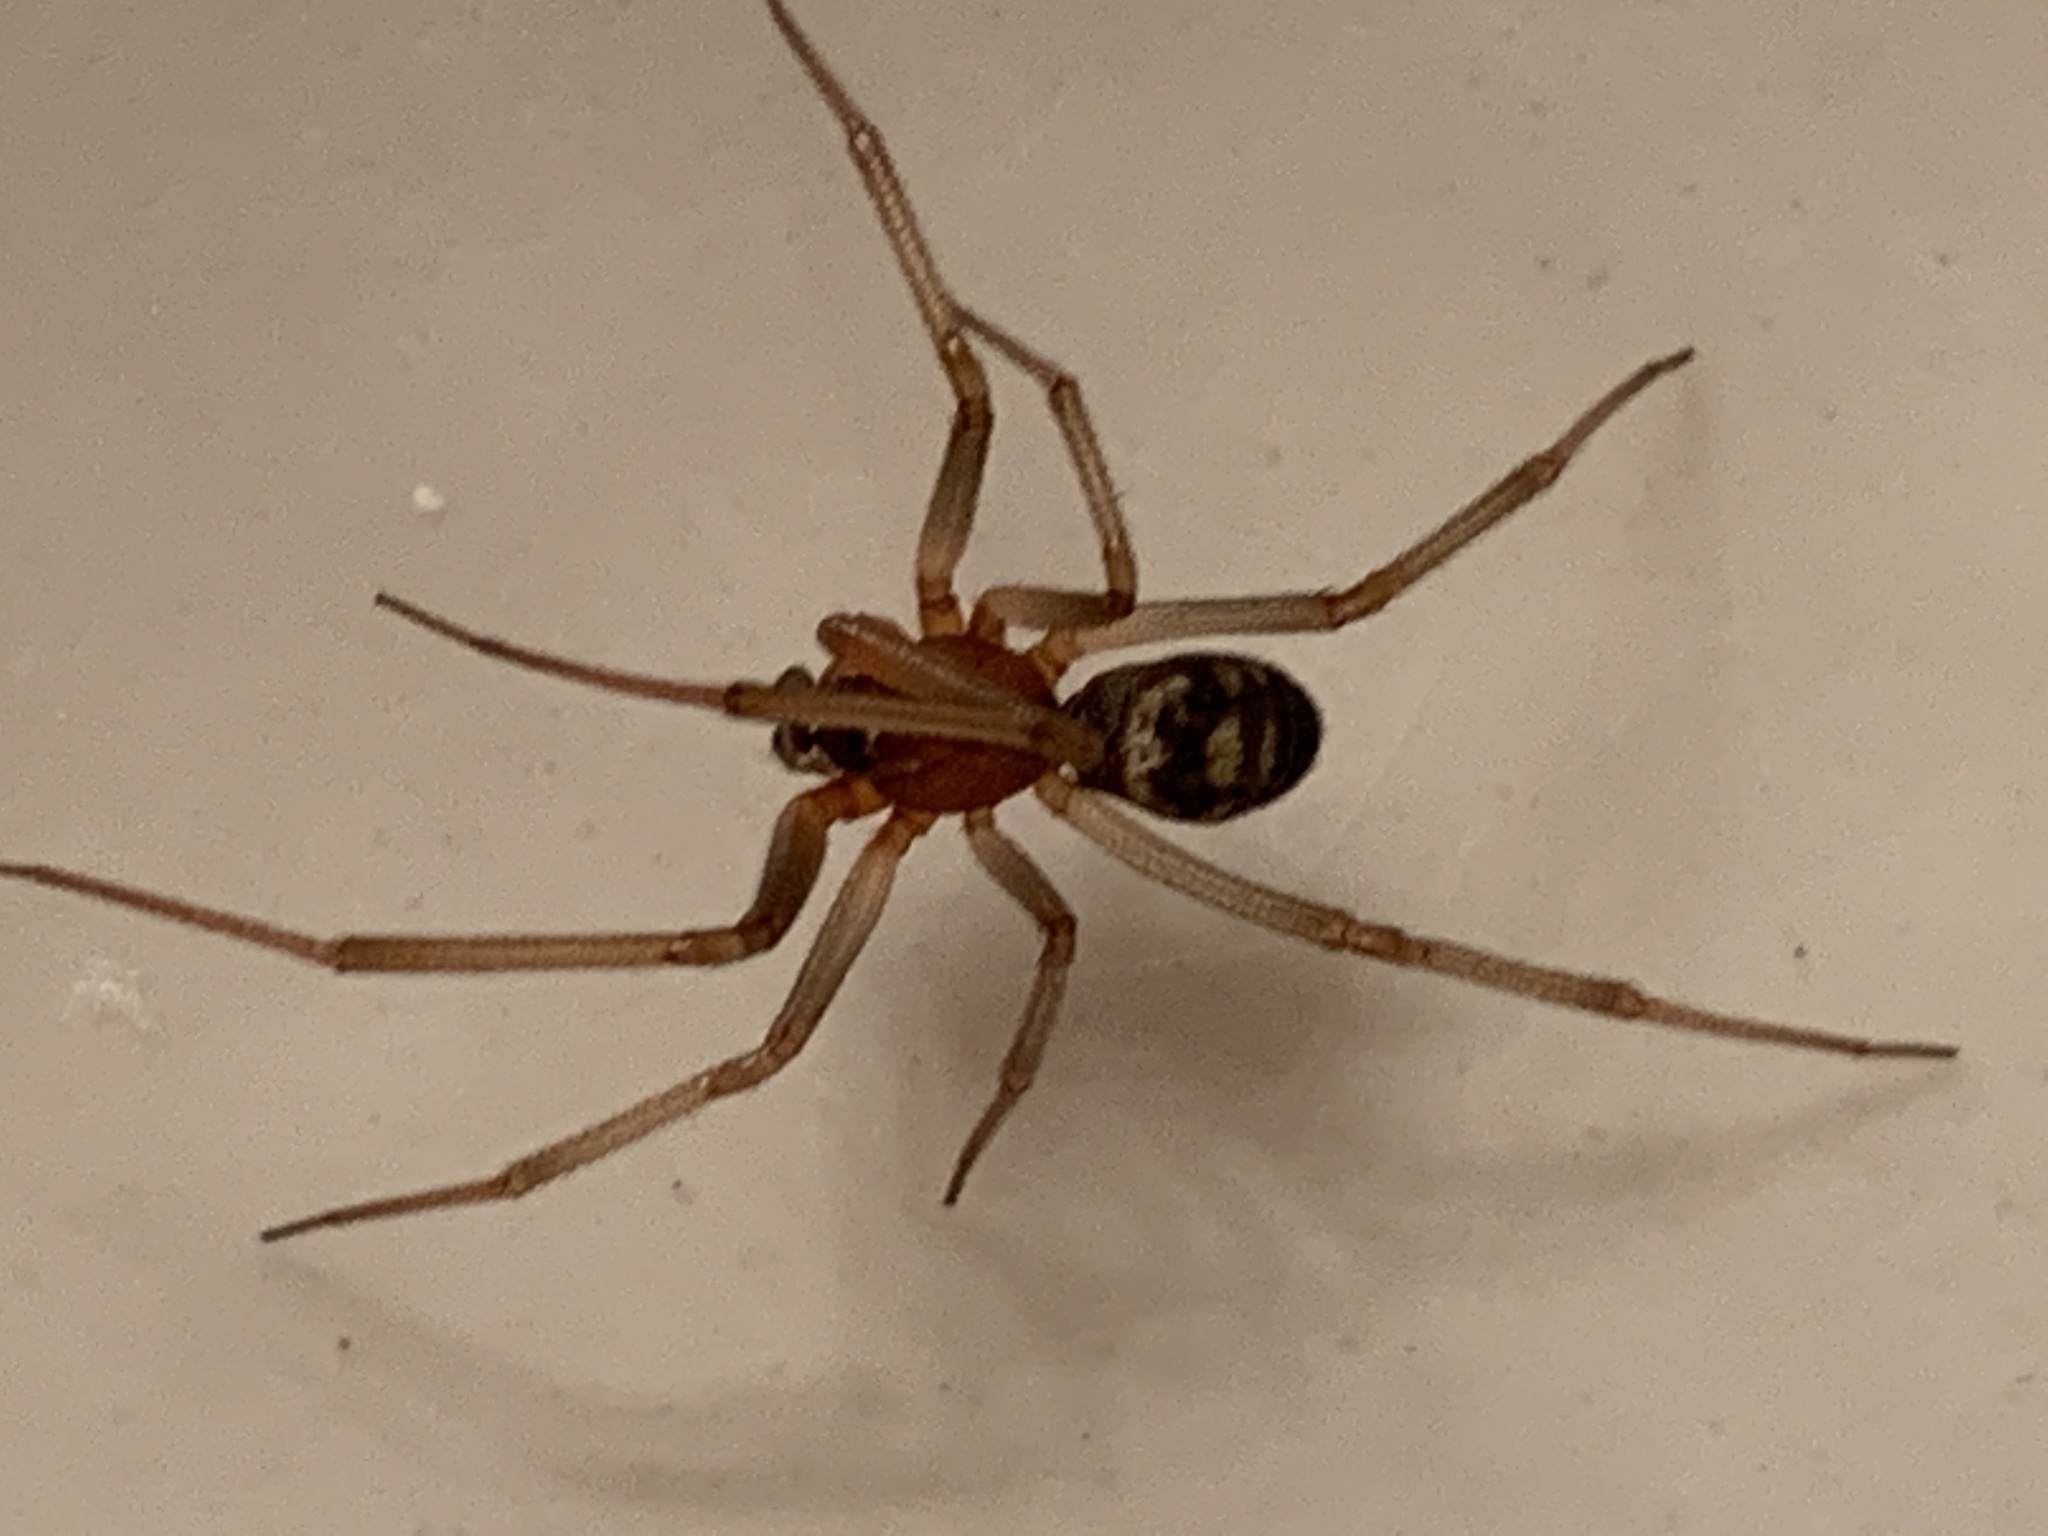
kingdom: Animalia
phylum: Arthropoda
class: Arachnida
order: Araneae
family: Theridiidae
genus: Steatoda
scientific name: Steatoda grossa
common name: False black widow
